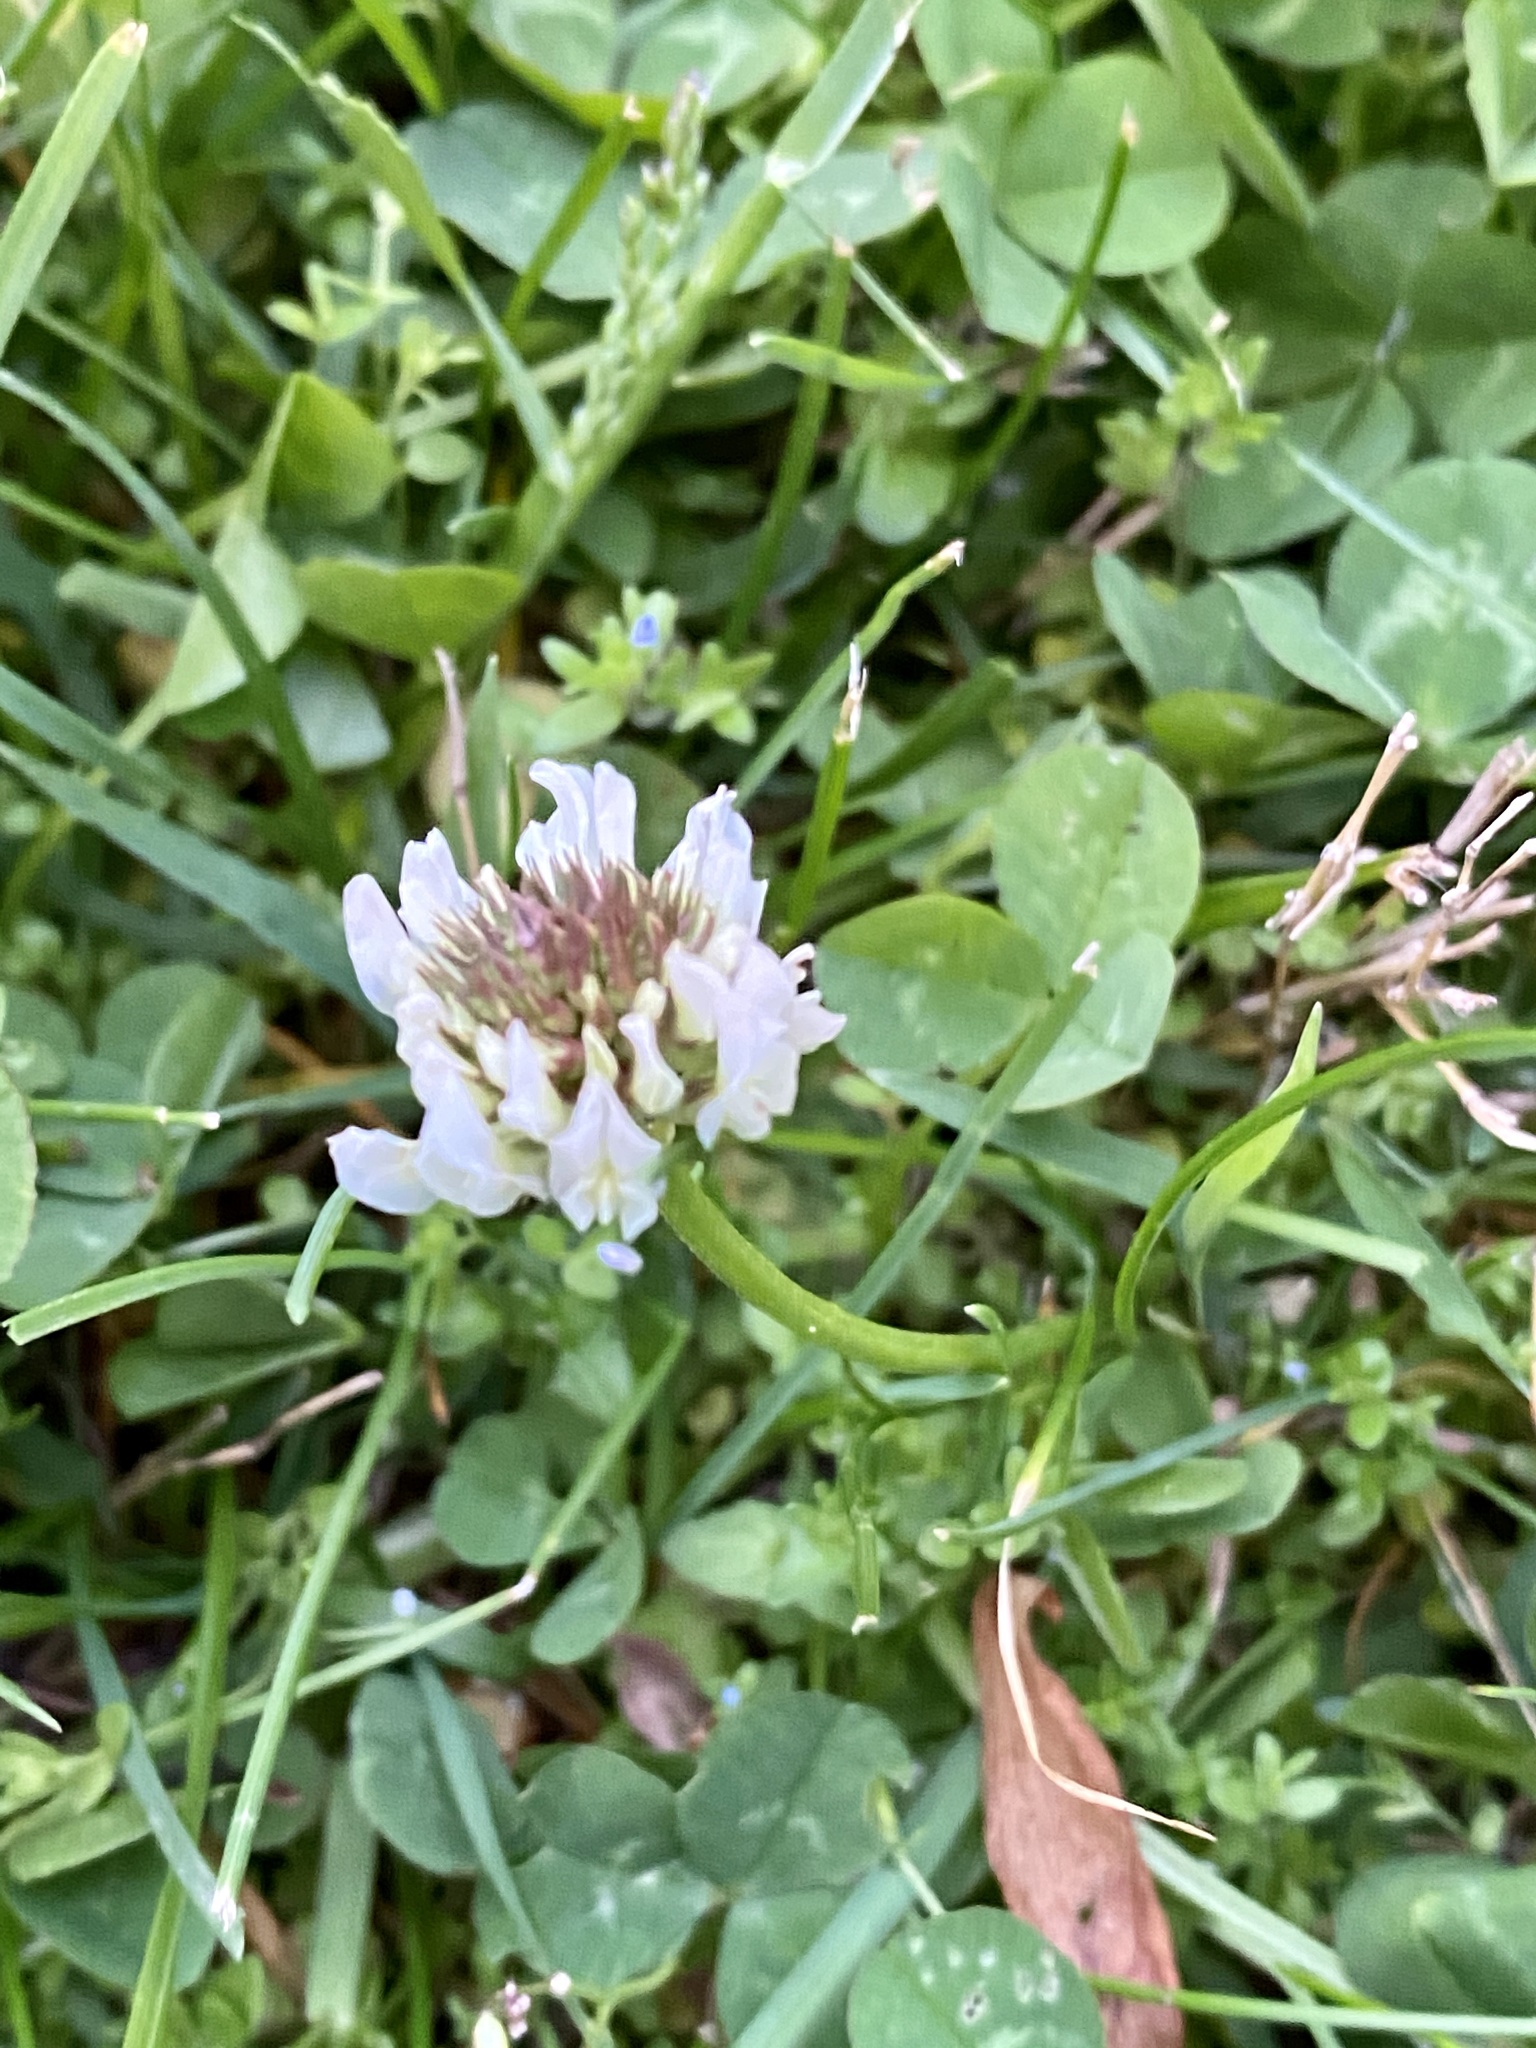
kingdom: Plantae
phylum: Tracheophyta
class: Magnoliopsida
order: Fabales
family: Fabaceae
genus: Trifolium
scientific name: Trifolium repens
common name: White clover
